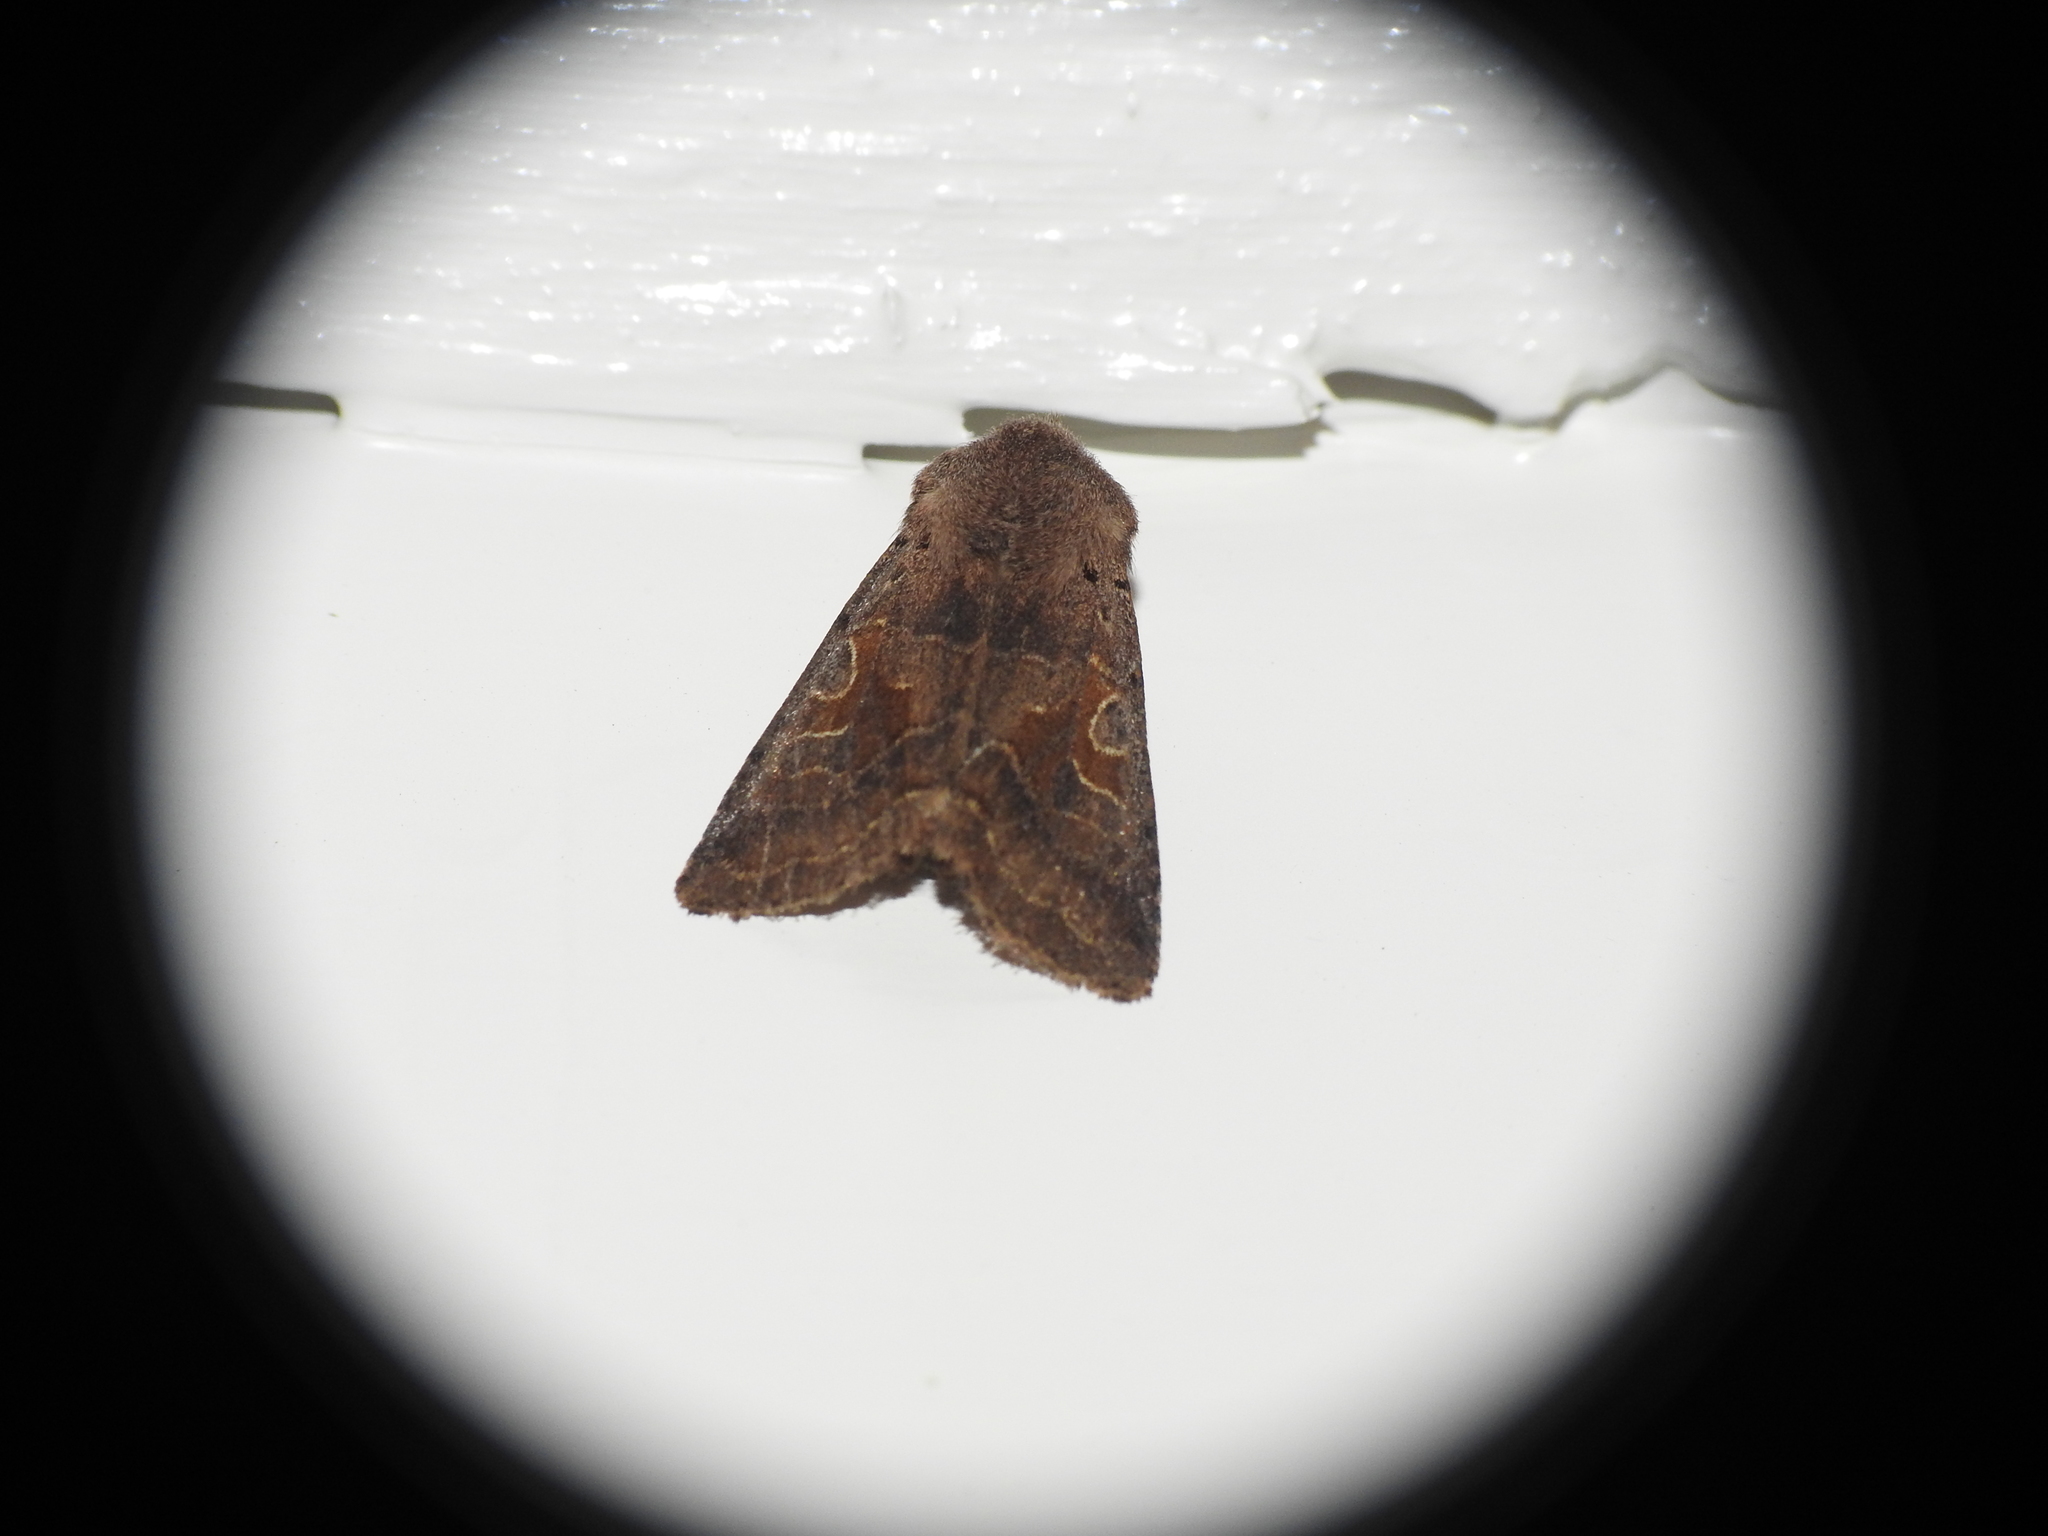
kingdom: Animalia
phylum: Arthropoda
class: Insecta
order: Lepidoptera
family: Noctuidae
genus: Orthosia
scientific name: Orthosia gothica
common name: Hebrew character
